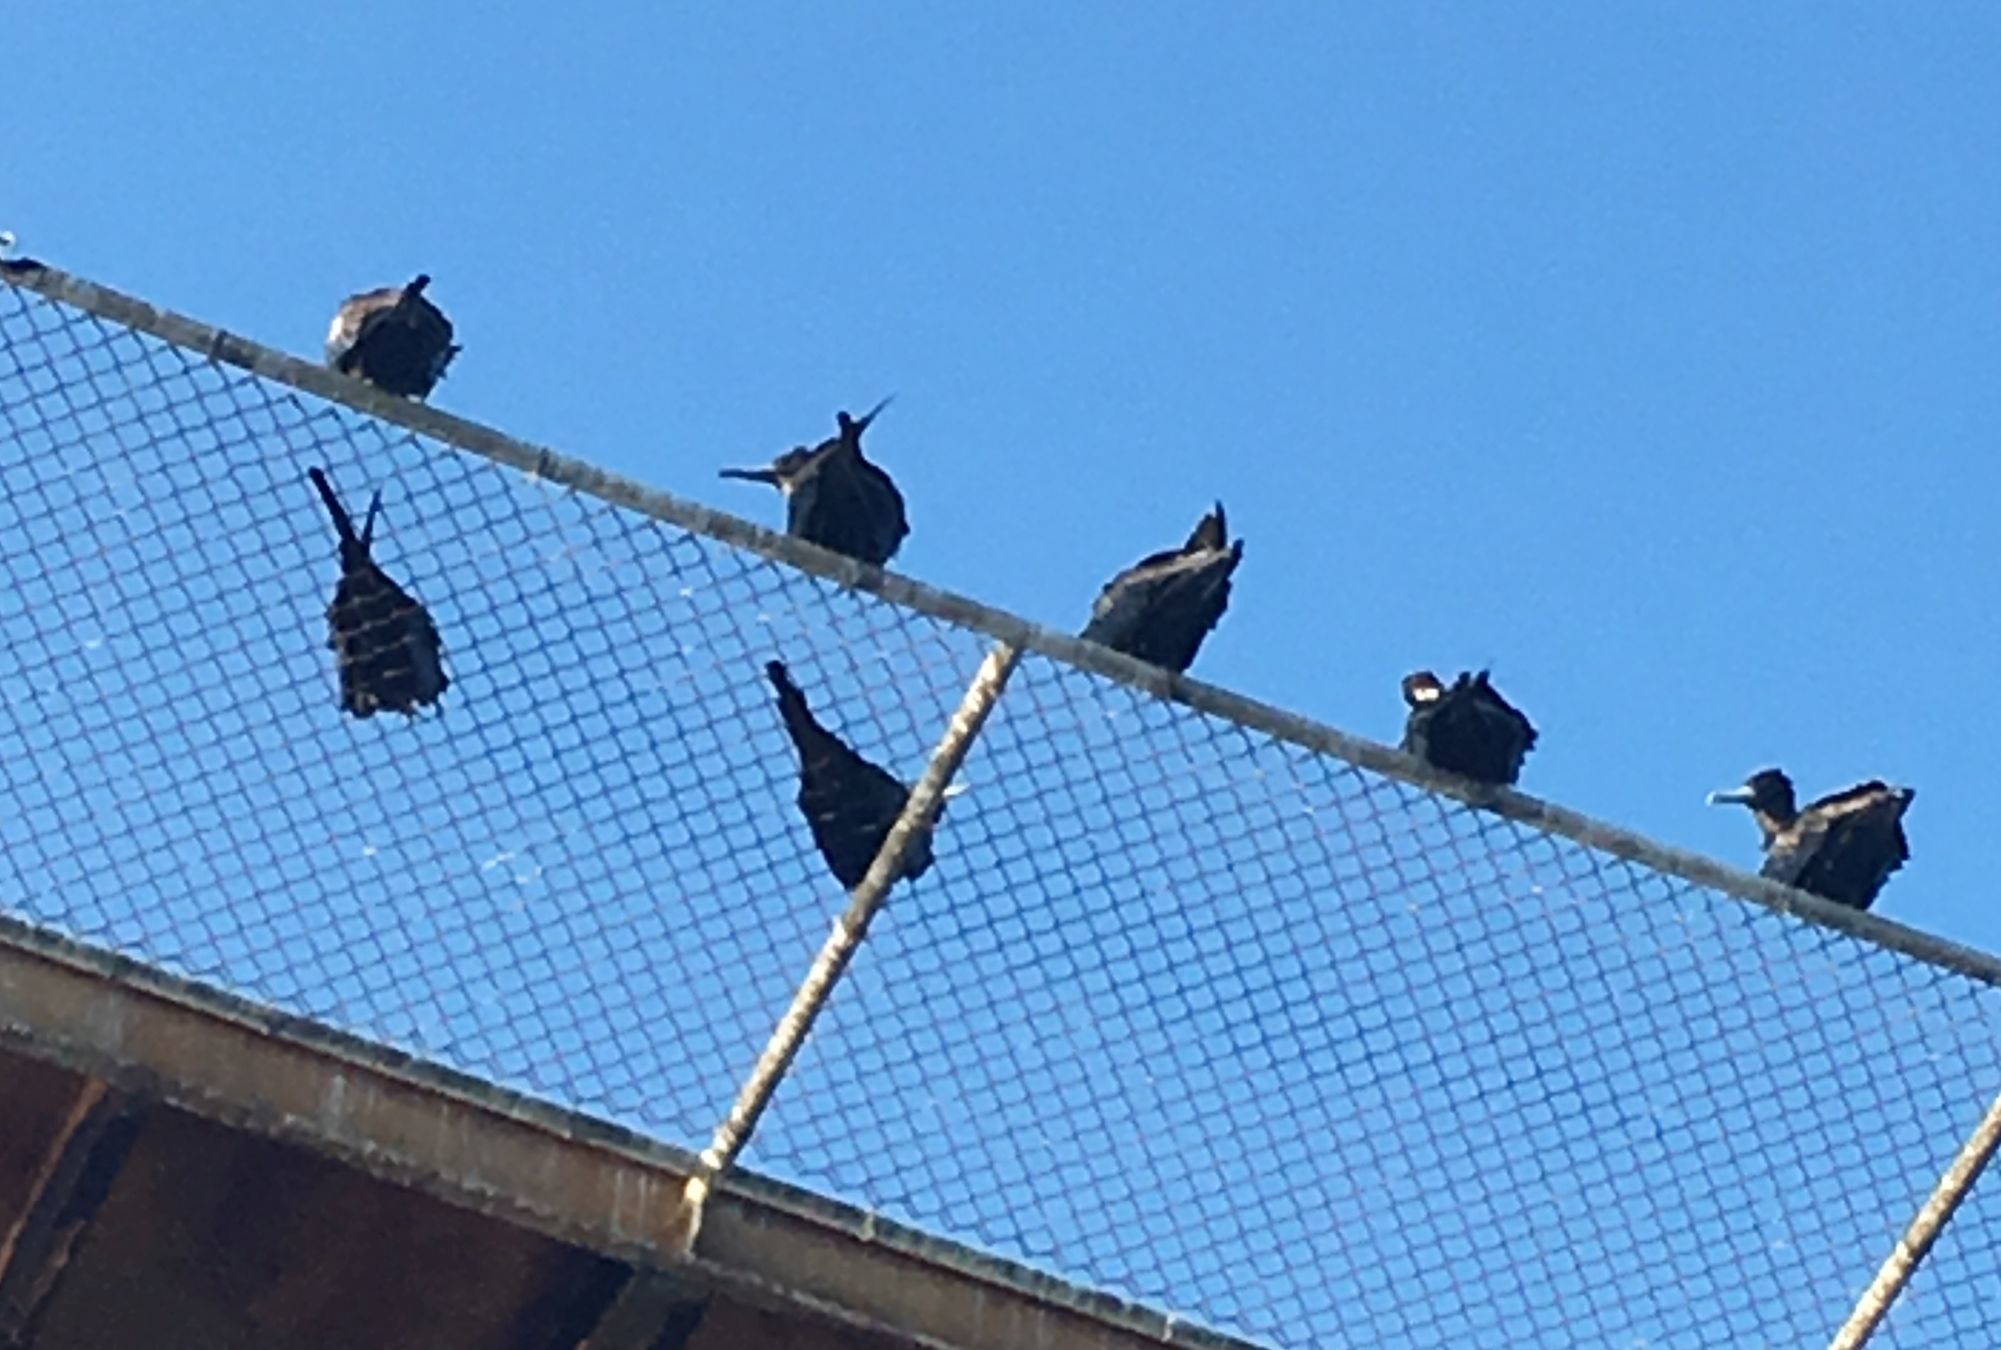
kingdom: Animalia
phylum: Chordata
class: Aves
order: Suliformes
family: Fregatidae
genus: Fregata
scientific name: Fregata magnificens
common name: Magnificent frigatebird
